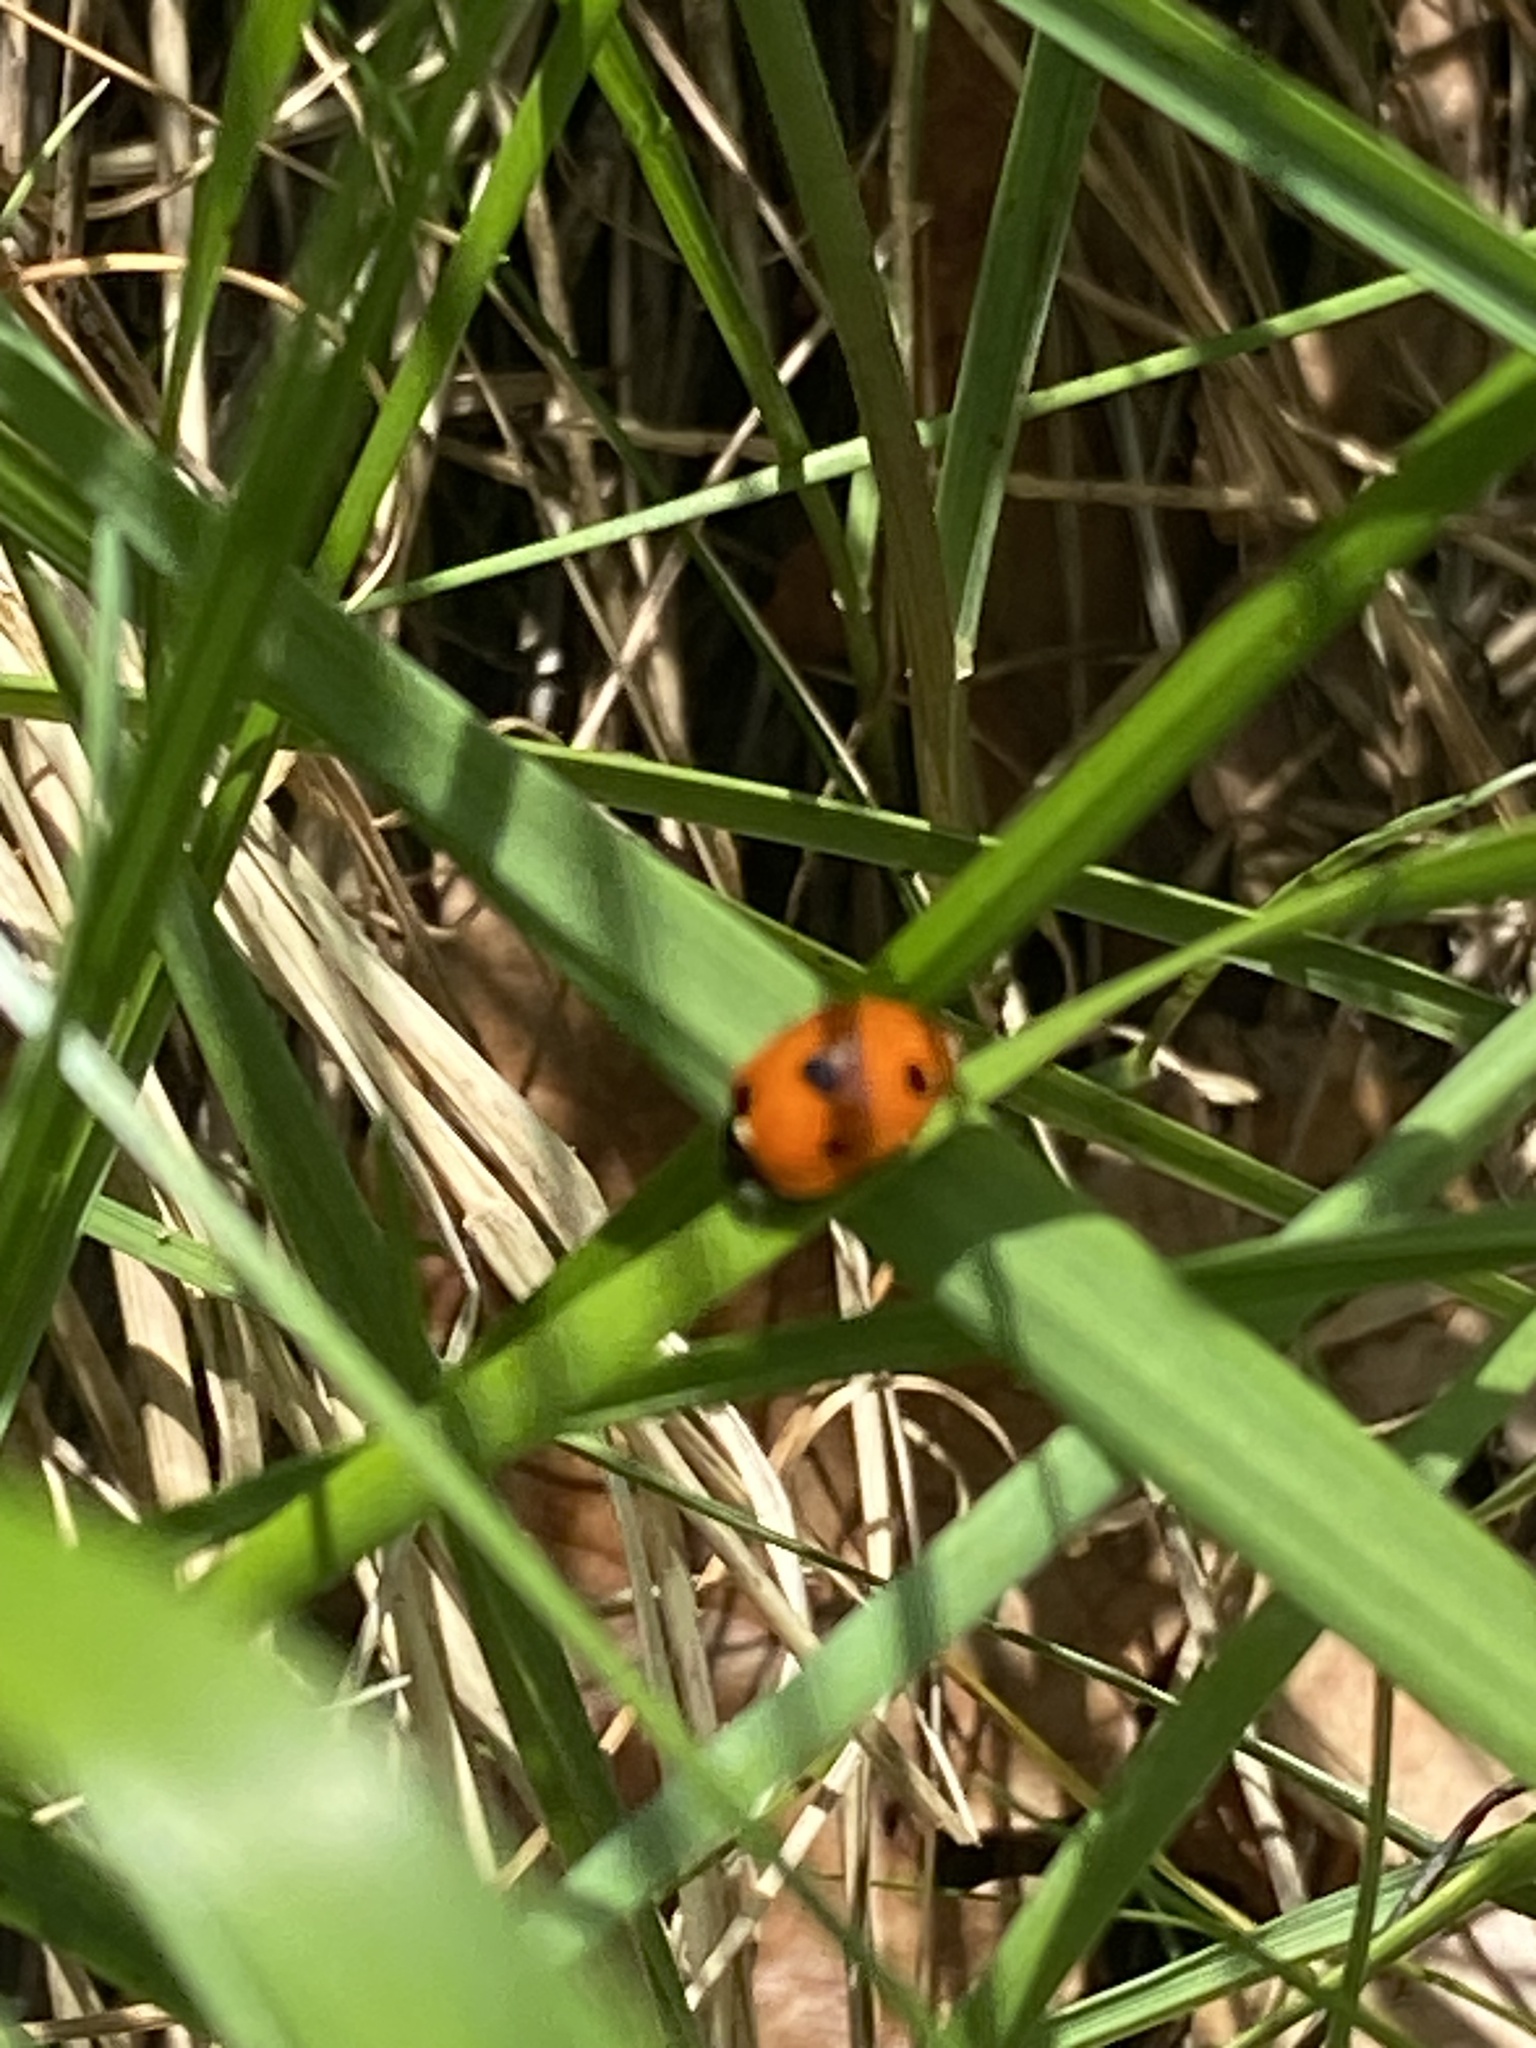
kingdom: Animalia
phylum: Arthropoda
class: Insecta
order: Coleoptera
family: Coccinellidae
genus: Coccinella
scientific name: Coccinella septempunctata
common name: Sevenspotted lady beetle
